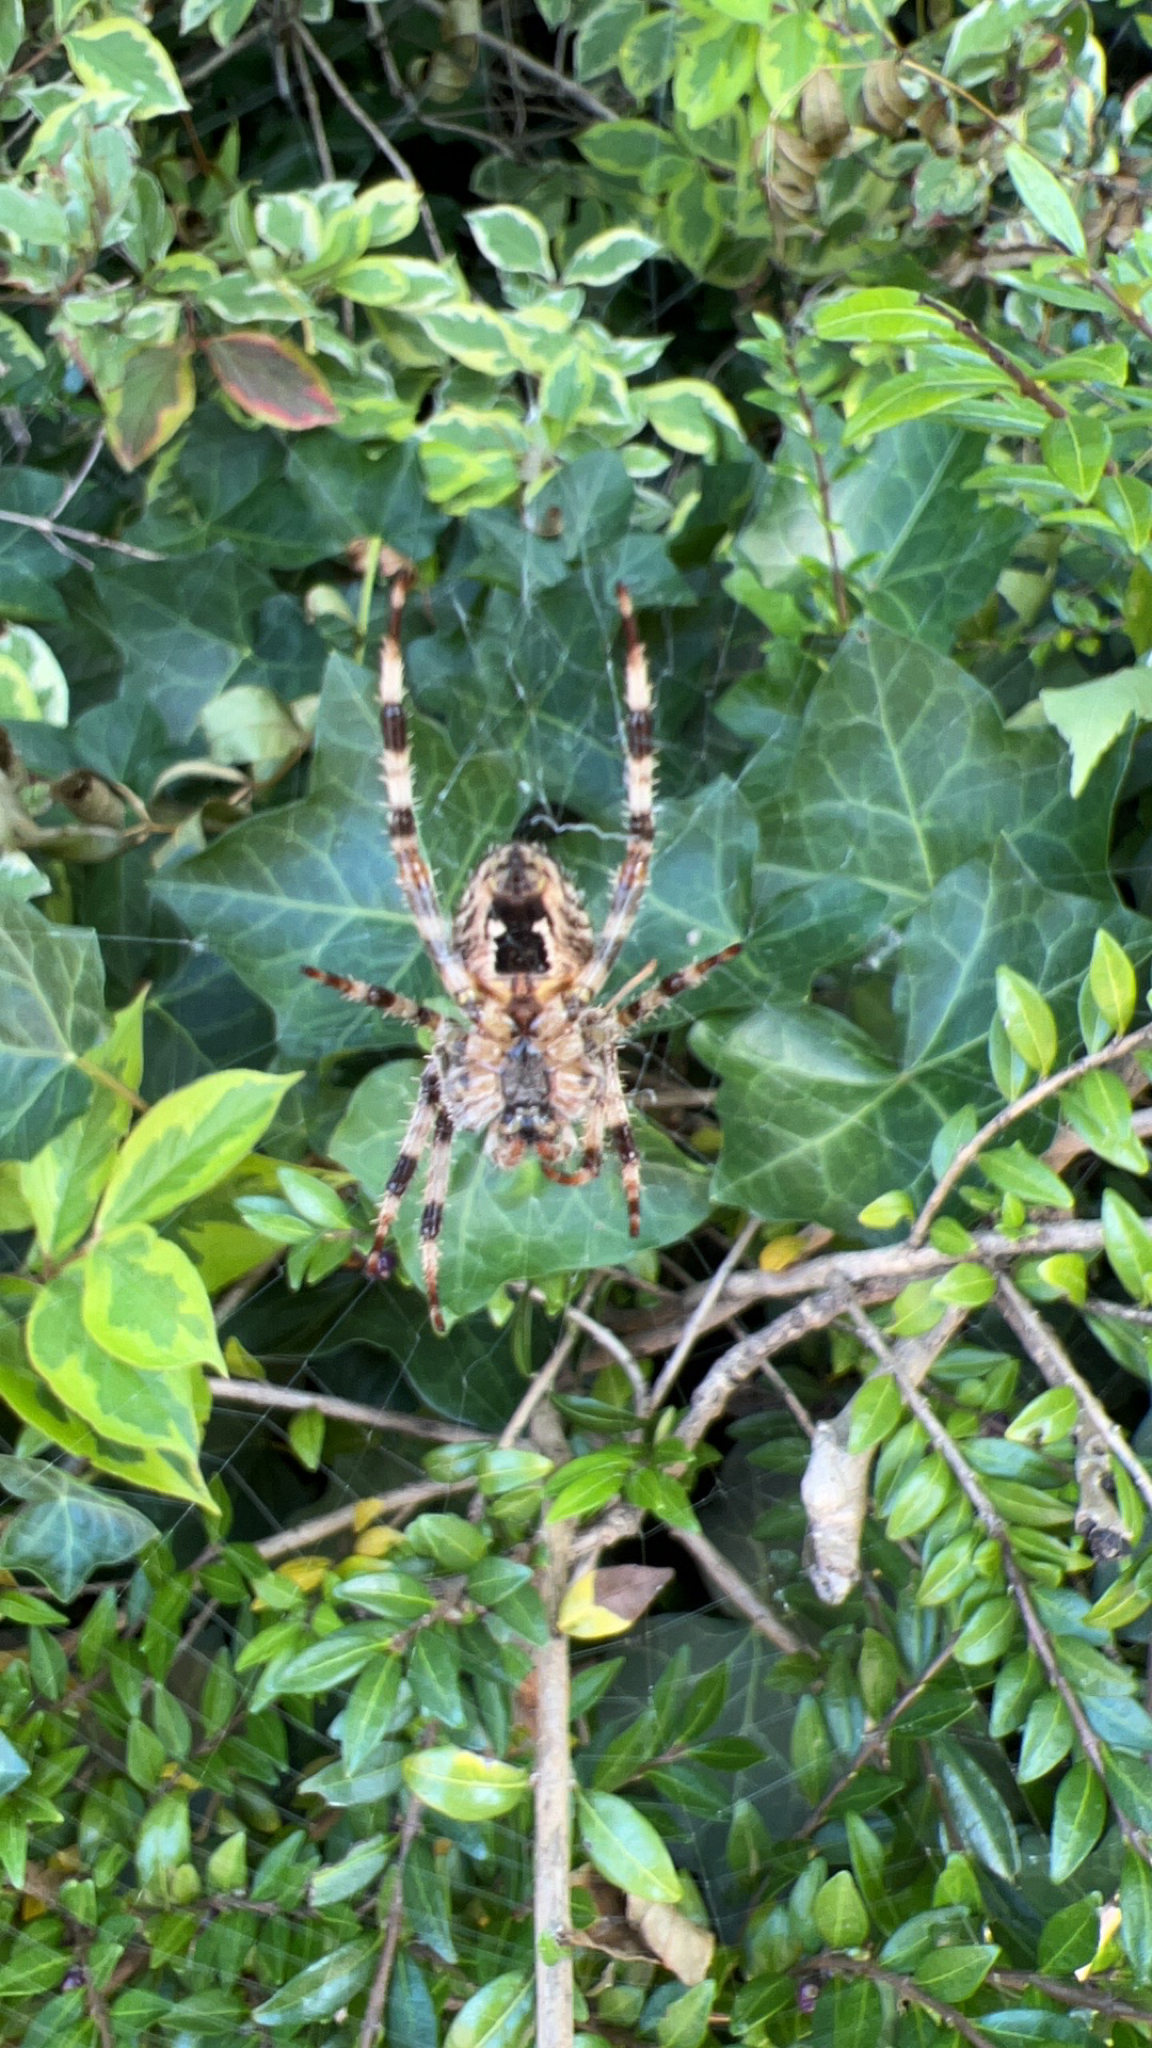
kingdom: Animalia
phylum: Arthropoda
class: Arachnida
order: Araneae
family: Araneidae
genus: Araneus
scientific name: Araneus diadematus
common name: Cross orbweaver
